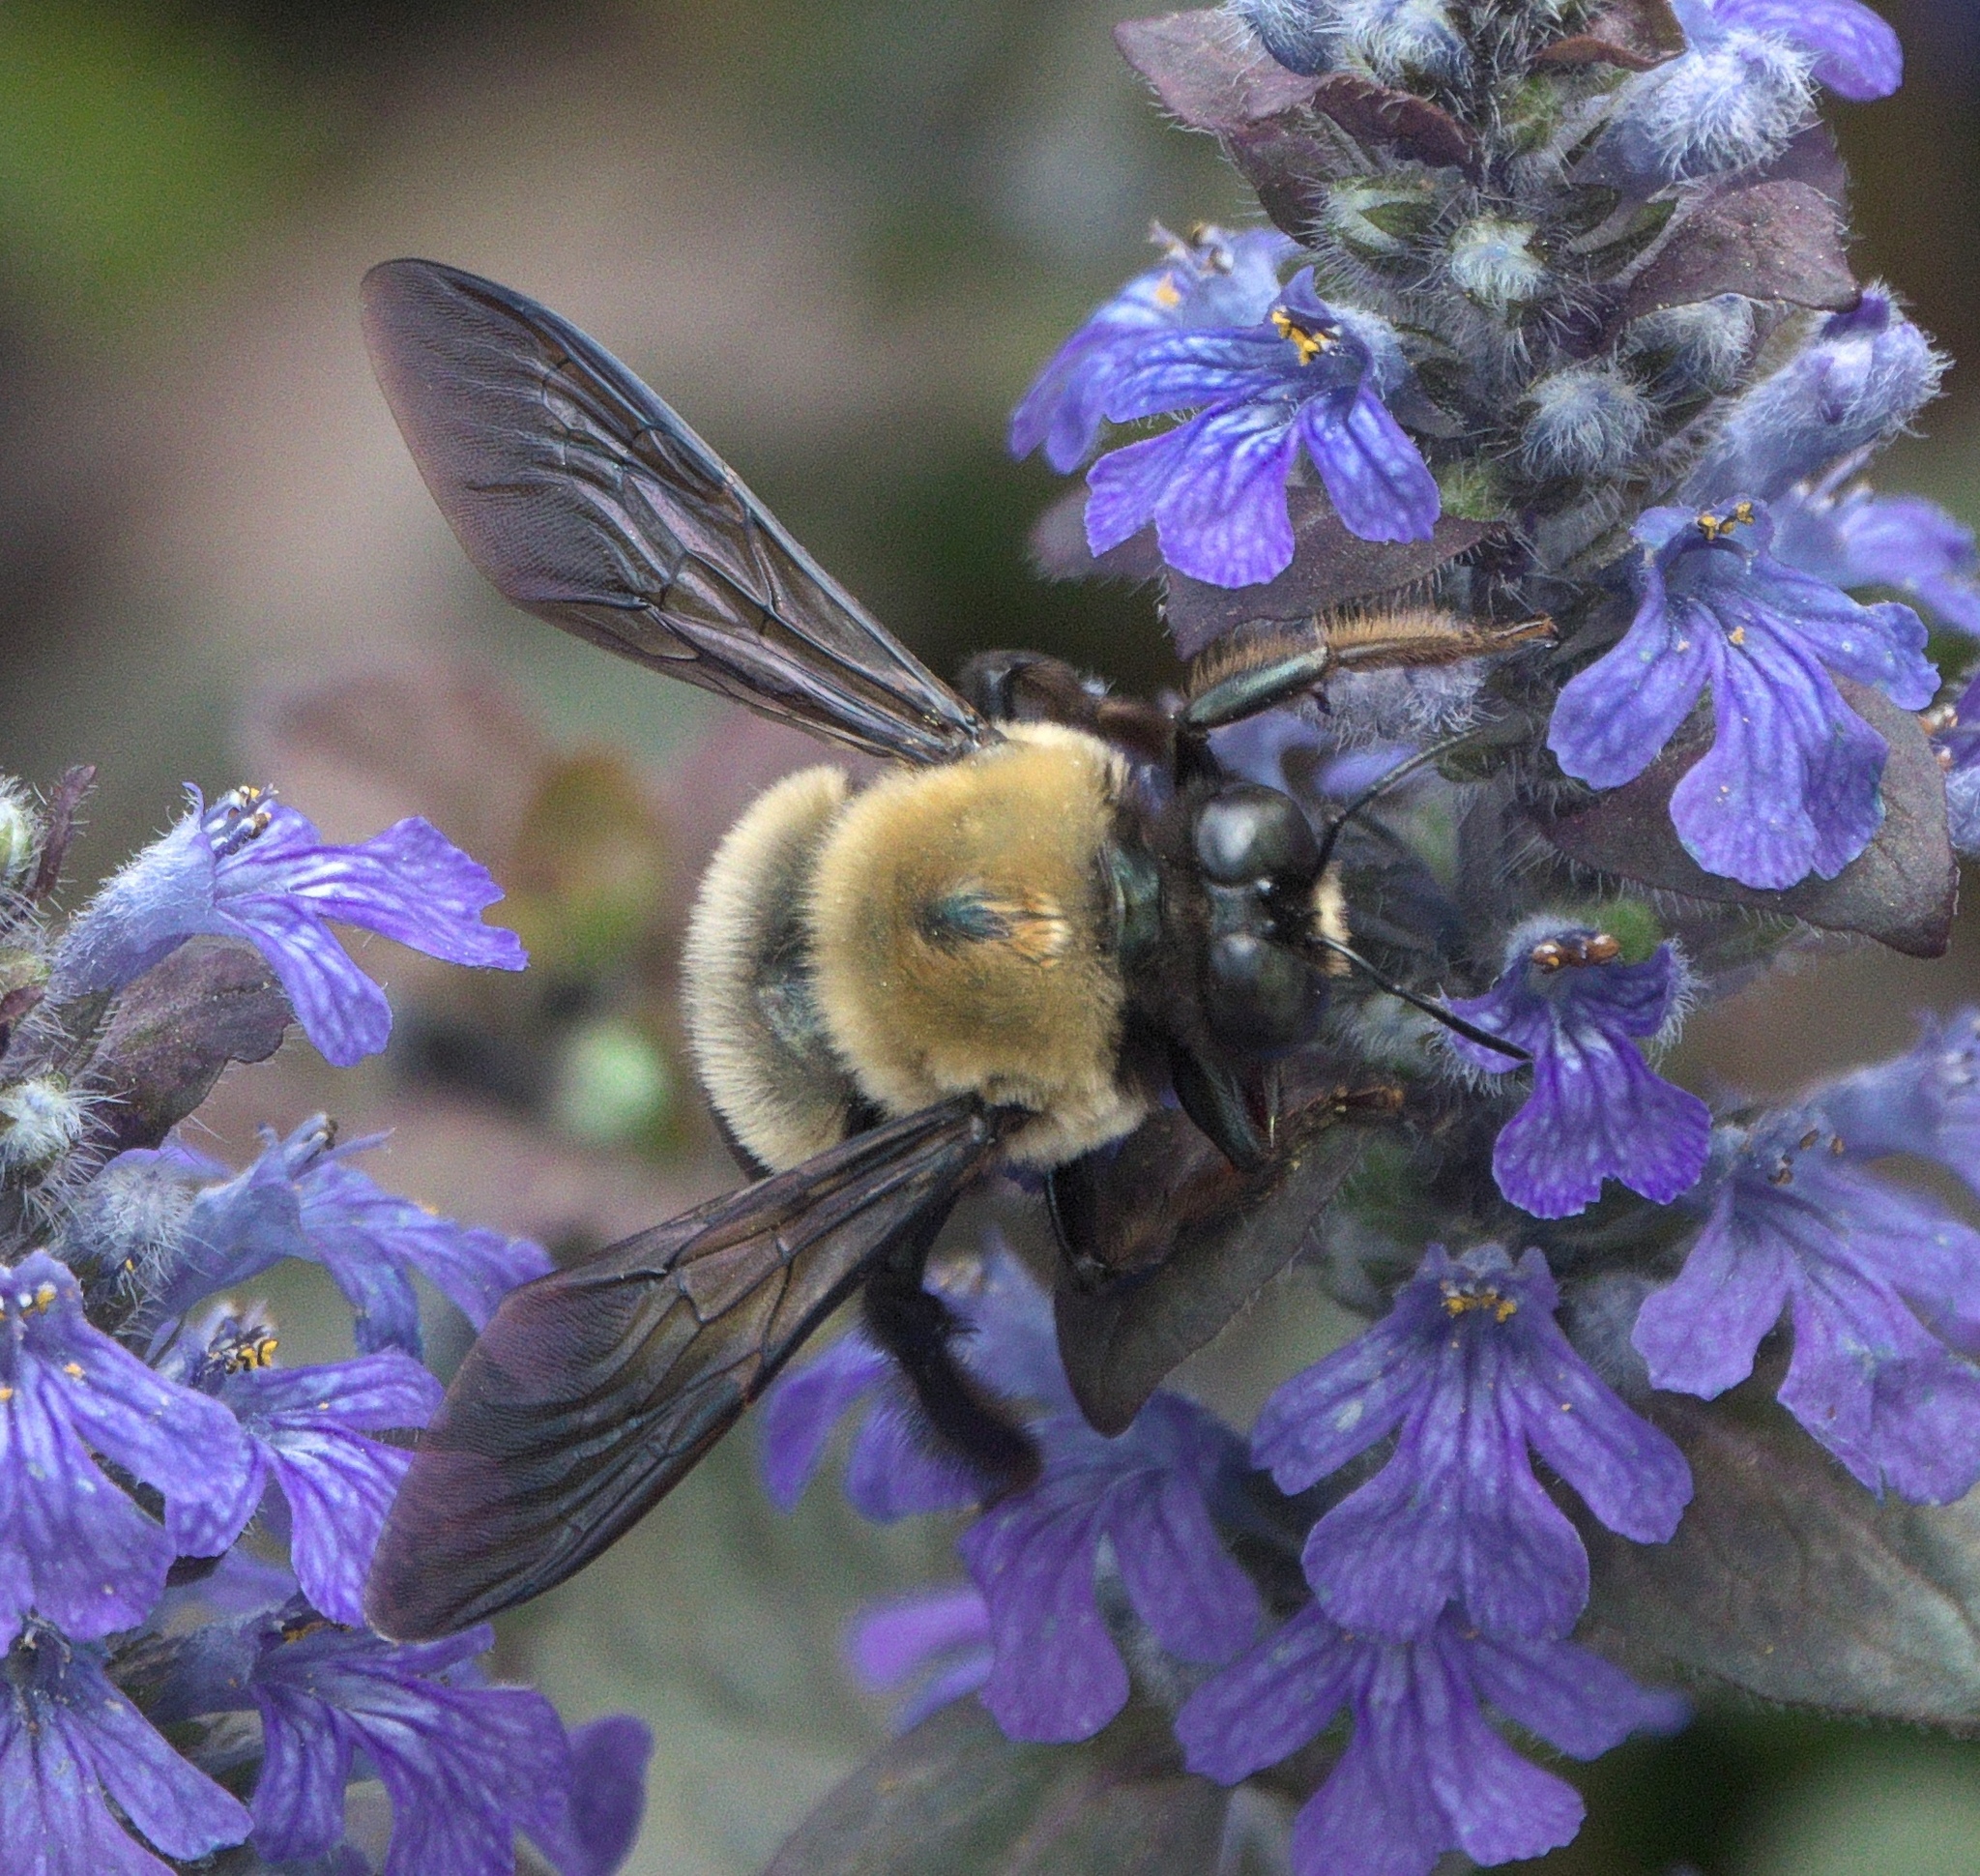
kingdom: Animalia
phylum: Arthropoda
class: Insecta
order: Hymenoptera
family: Apidae
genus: Xylocopa
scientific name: Xylocopa virginica
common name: Carpenter bee
